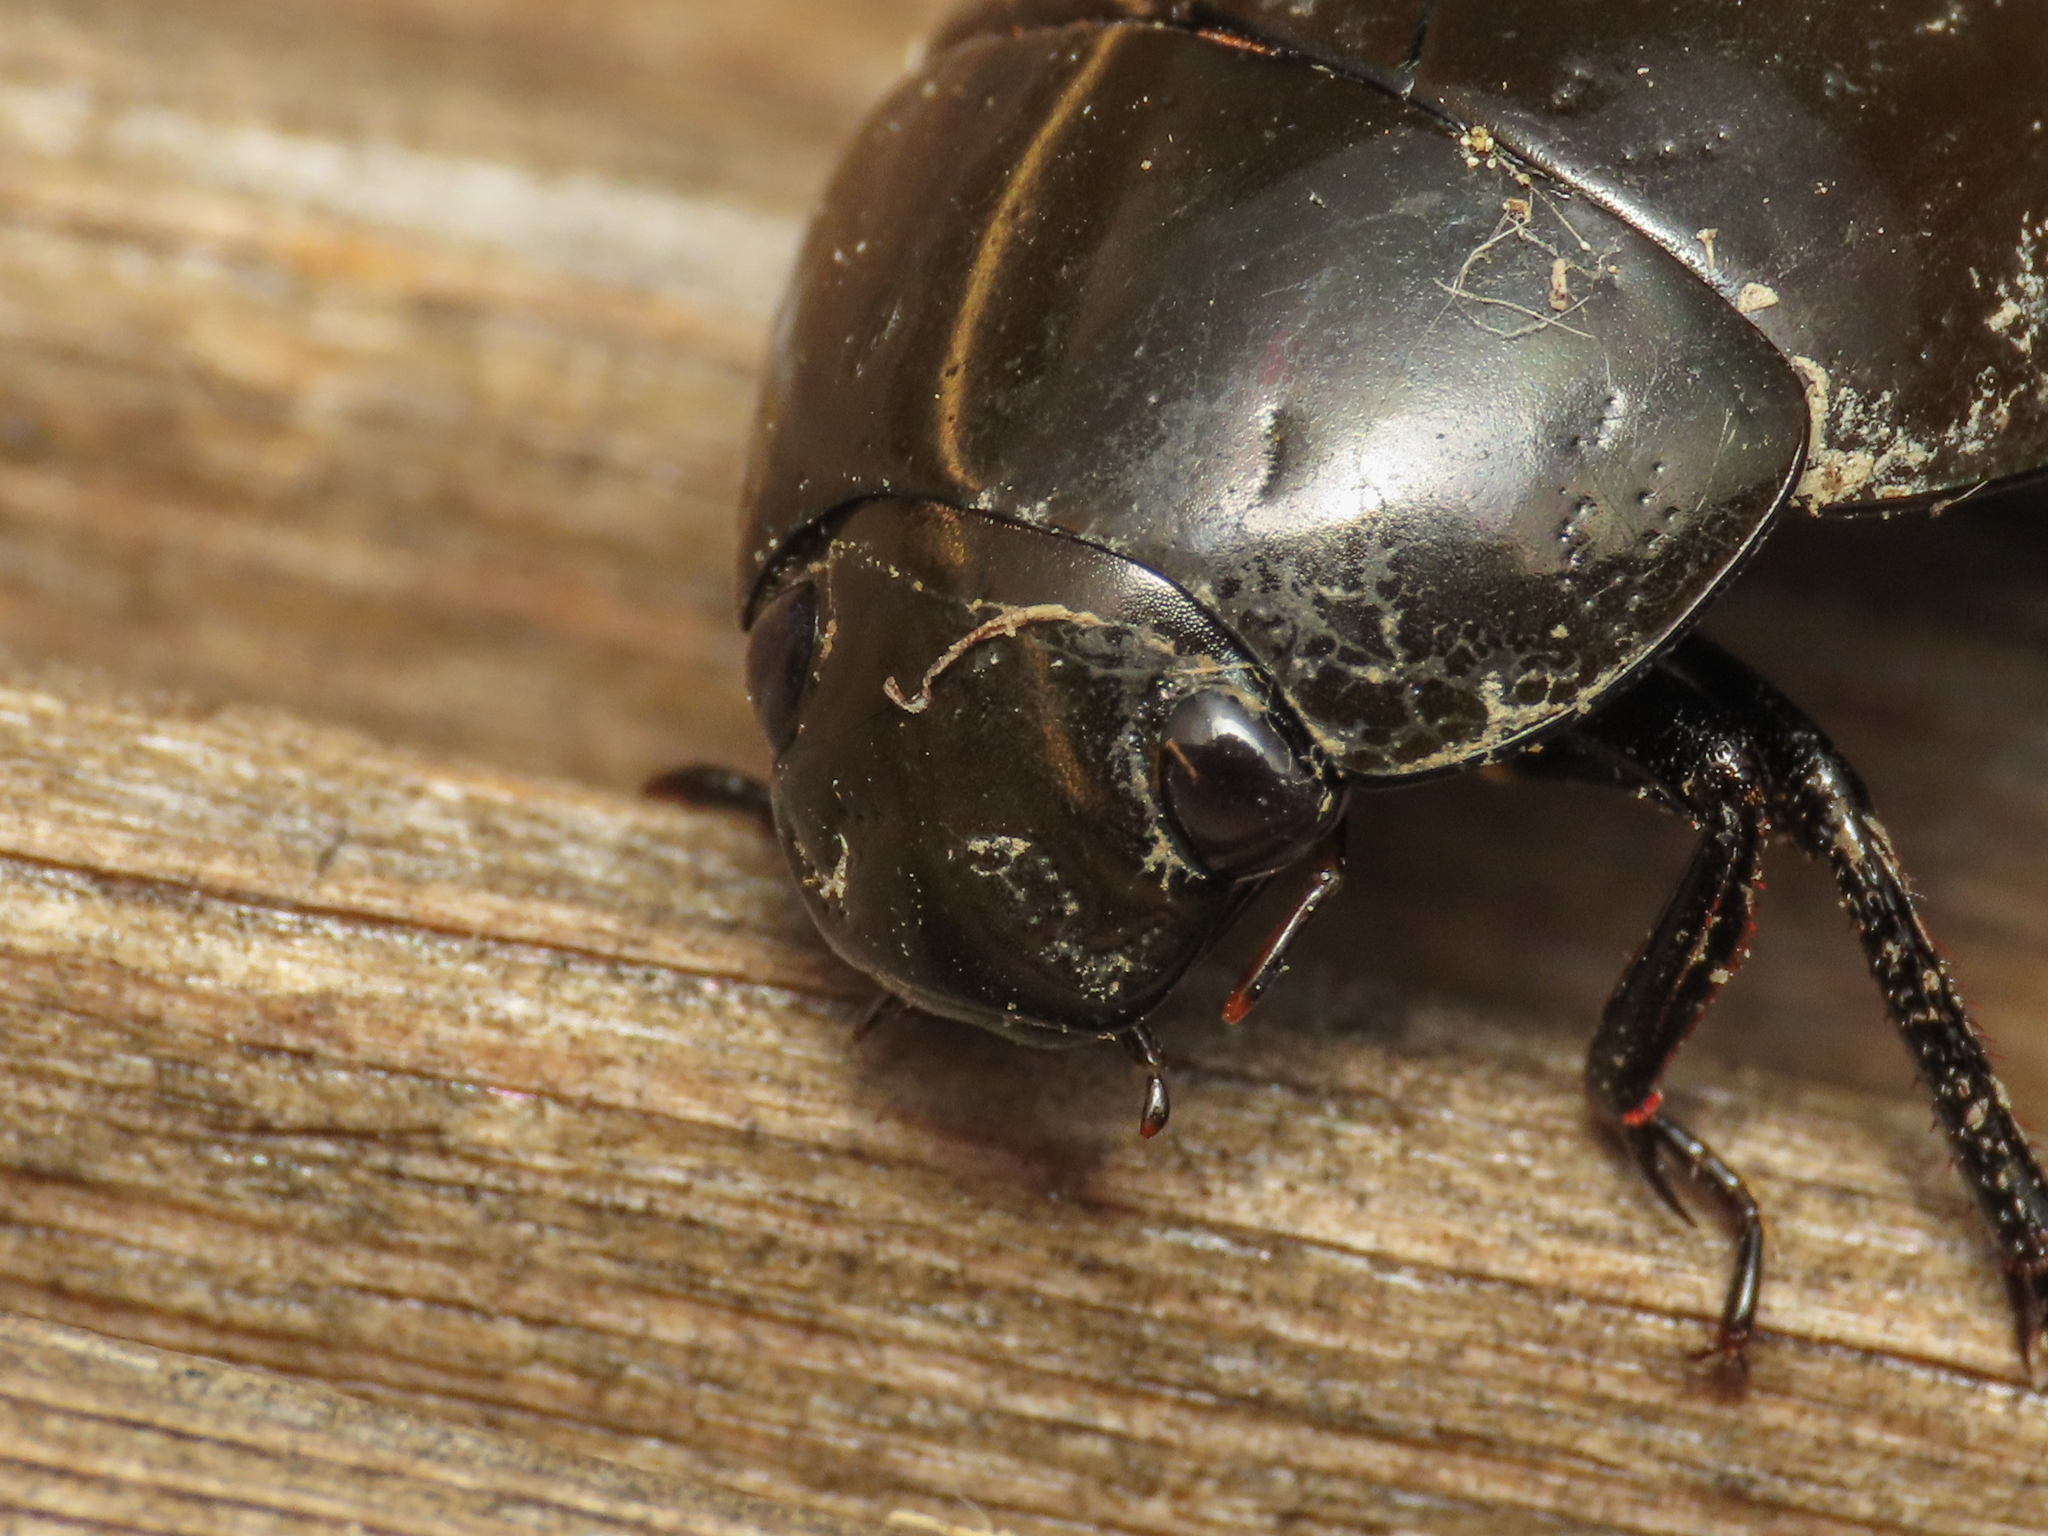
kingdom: Animalia
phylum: Arthropoda
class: Insecta
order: Coleoptera
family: Hydrophilidae
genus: Hydrochara
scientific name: Hydrochara caraboides
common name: Lesser silver water beetle
